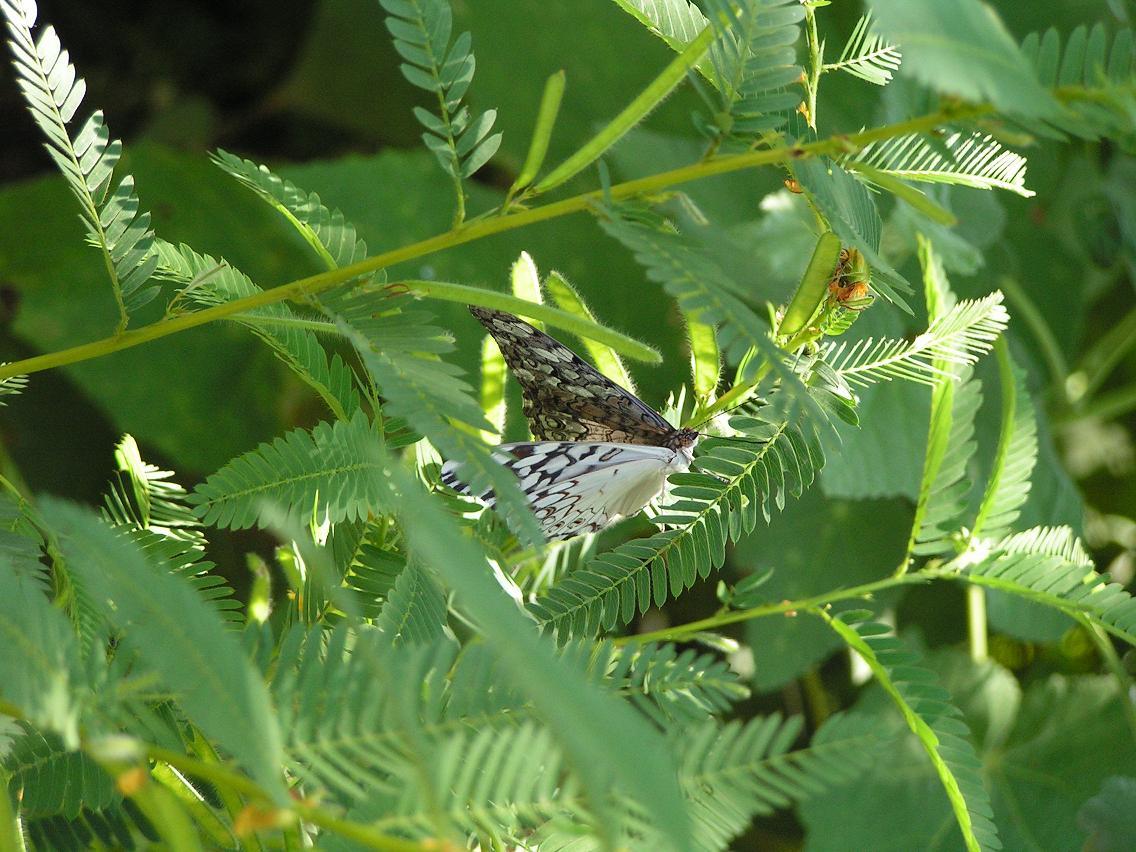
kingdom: Animalia
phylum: Arthropoda
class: Insecta
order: Lepidoptera
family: Nymphalidae
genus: Hamadryas
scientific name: Hamadryas februa
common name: Gray cracker
